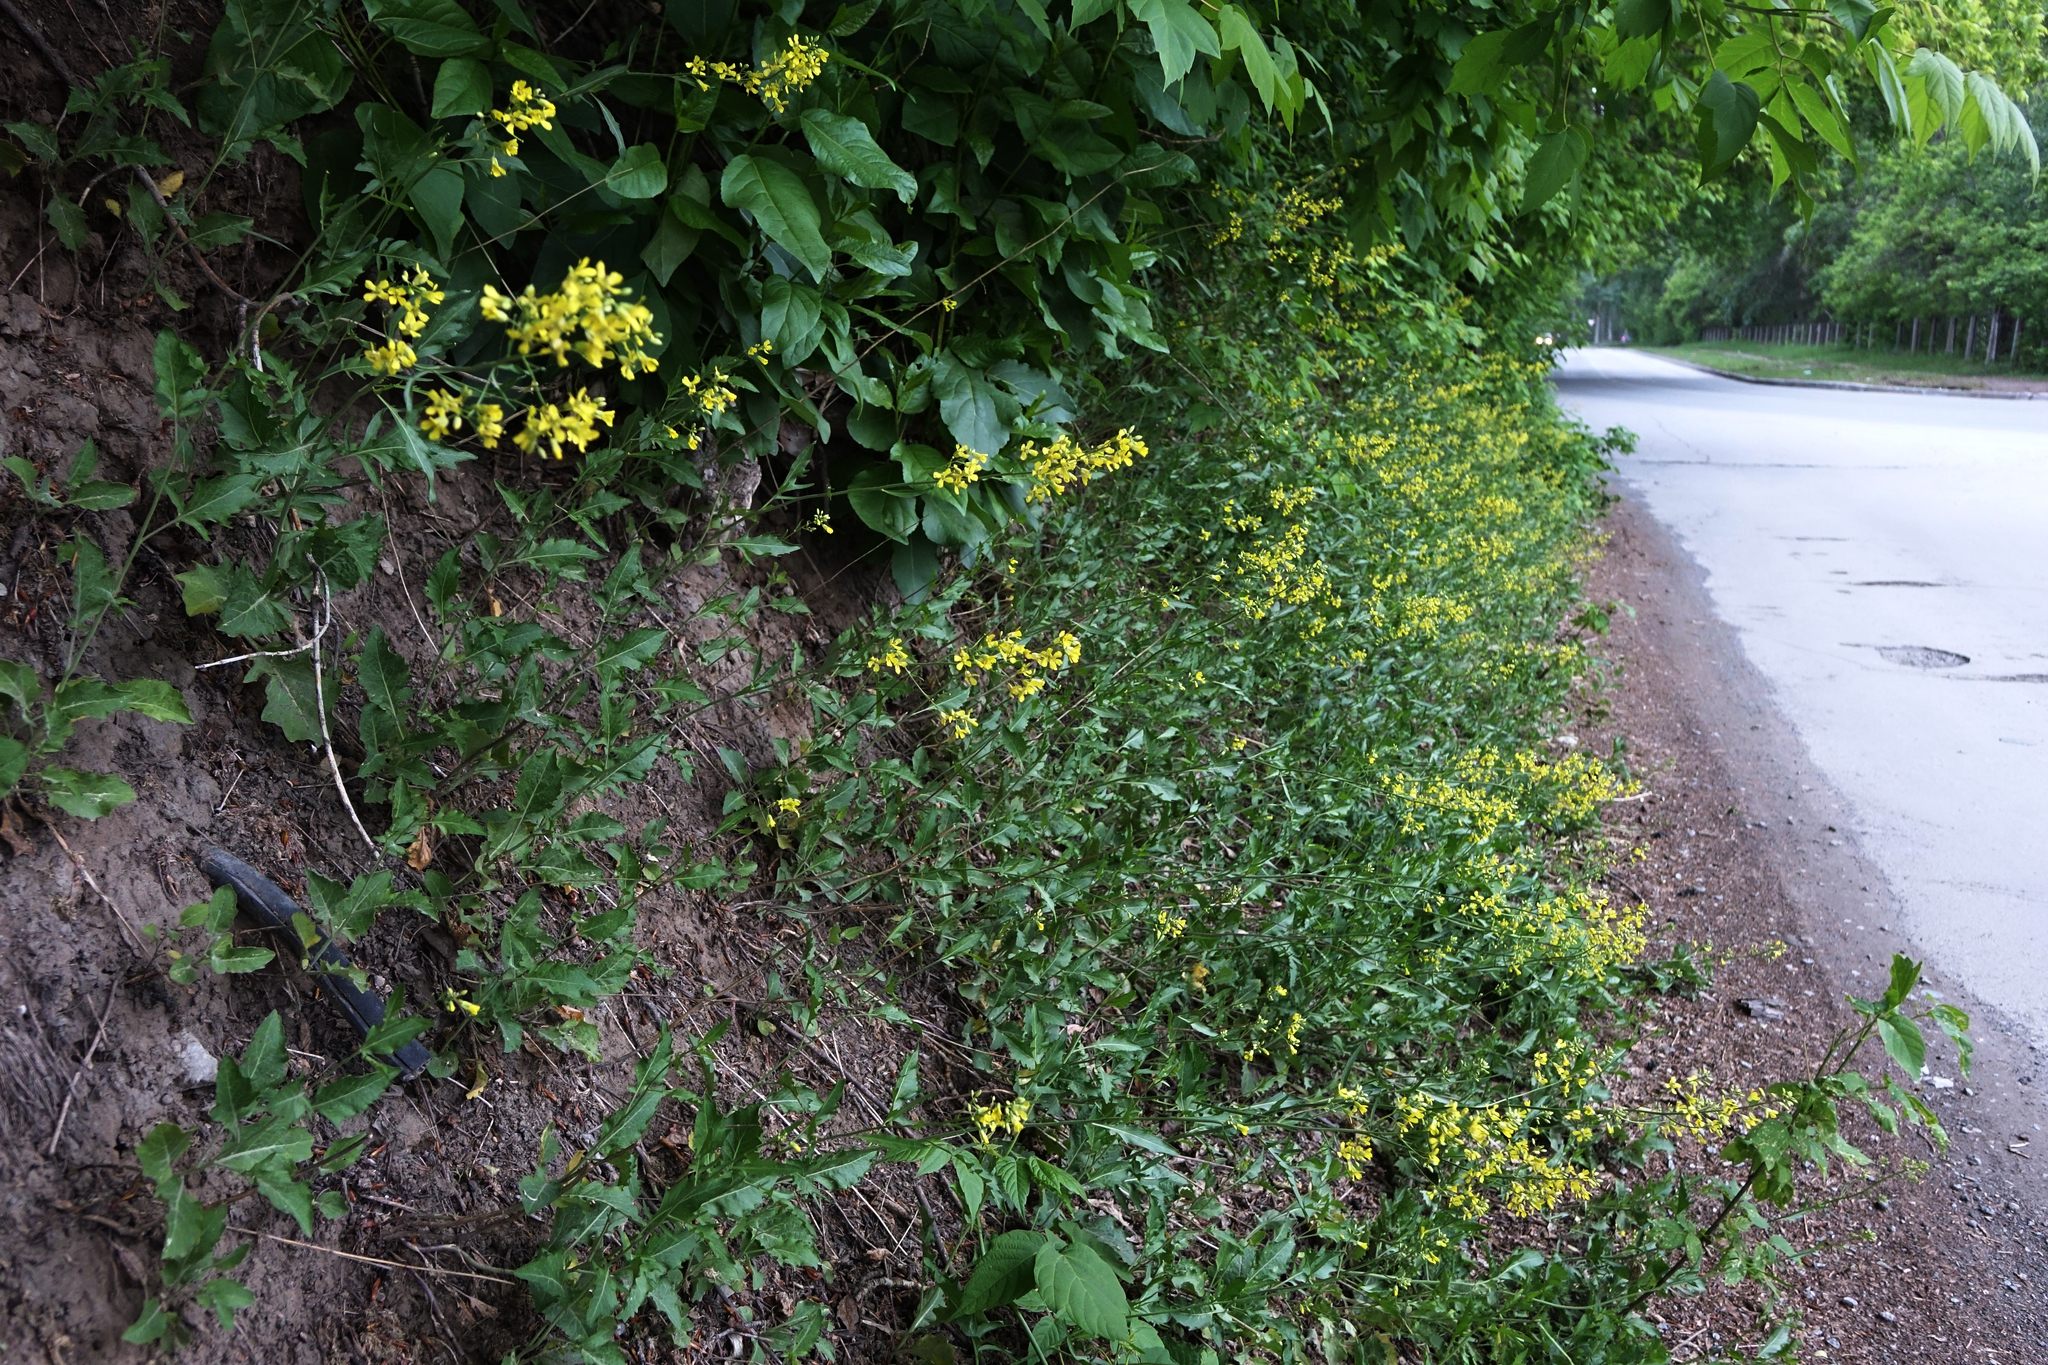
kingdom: Plantae
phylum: Tracheophyta
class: Magnoliopsida
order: Brassicales
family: Brassicaceae
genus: Sisymbrium
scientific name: Sisymbrium volgense
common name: Russian mustard
